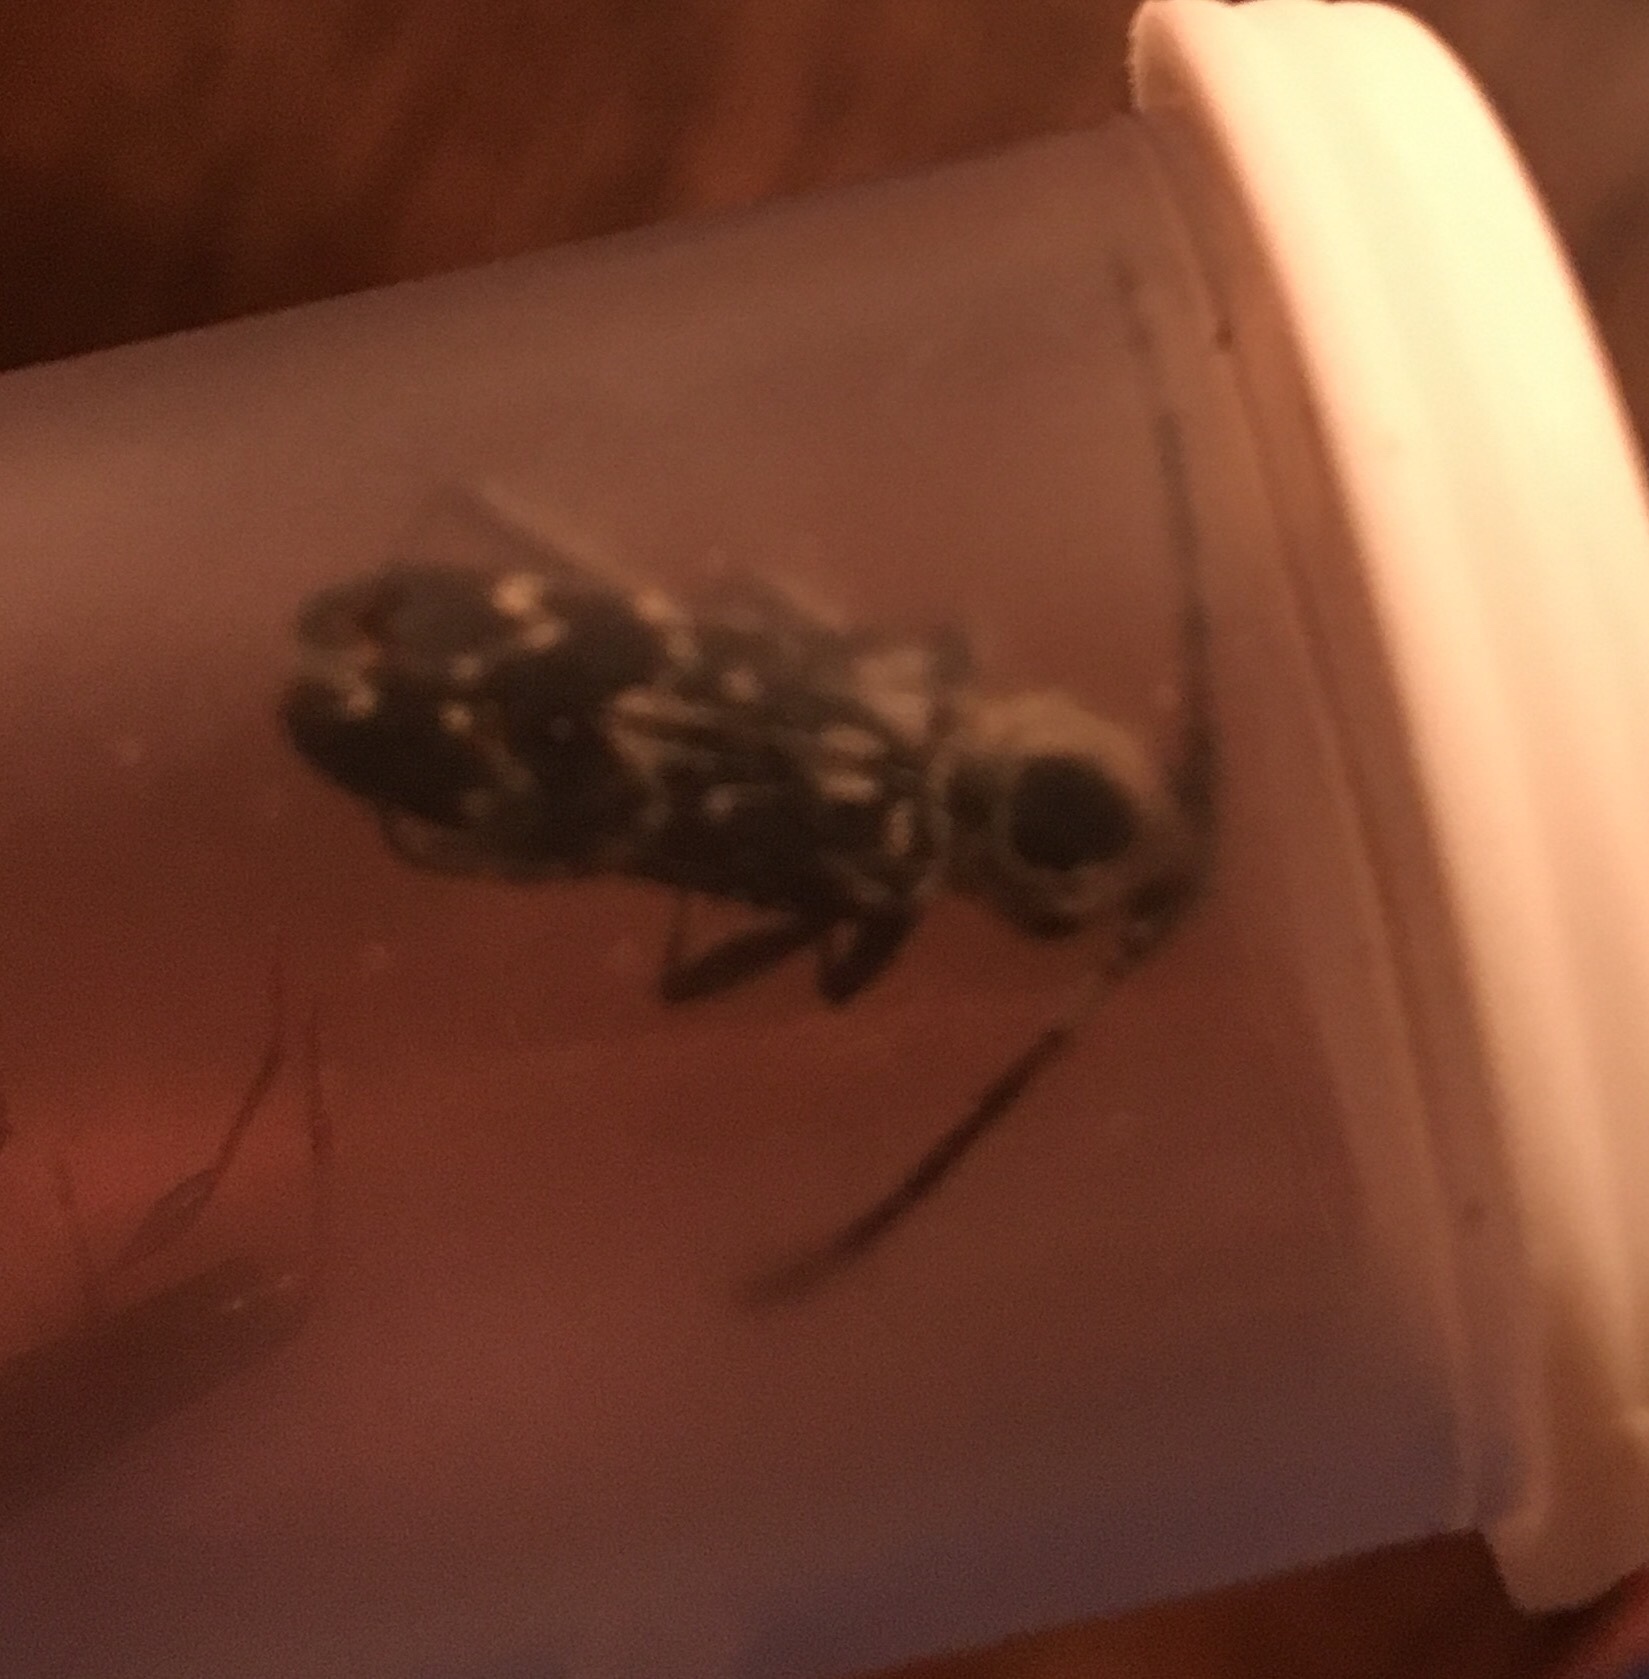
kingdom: Animalia
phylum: Arthropoda
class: Insecta
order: Coleoptera
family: Cerambycidae
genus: Sarosesthes
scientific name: Sarosesthes fulminans
